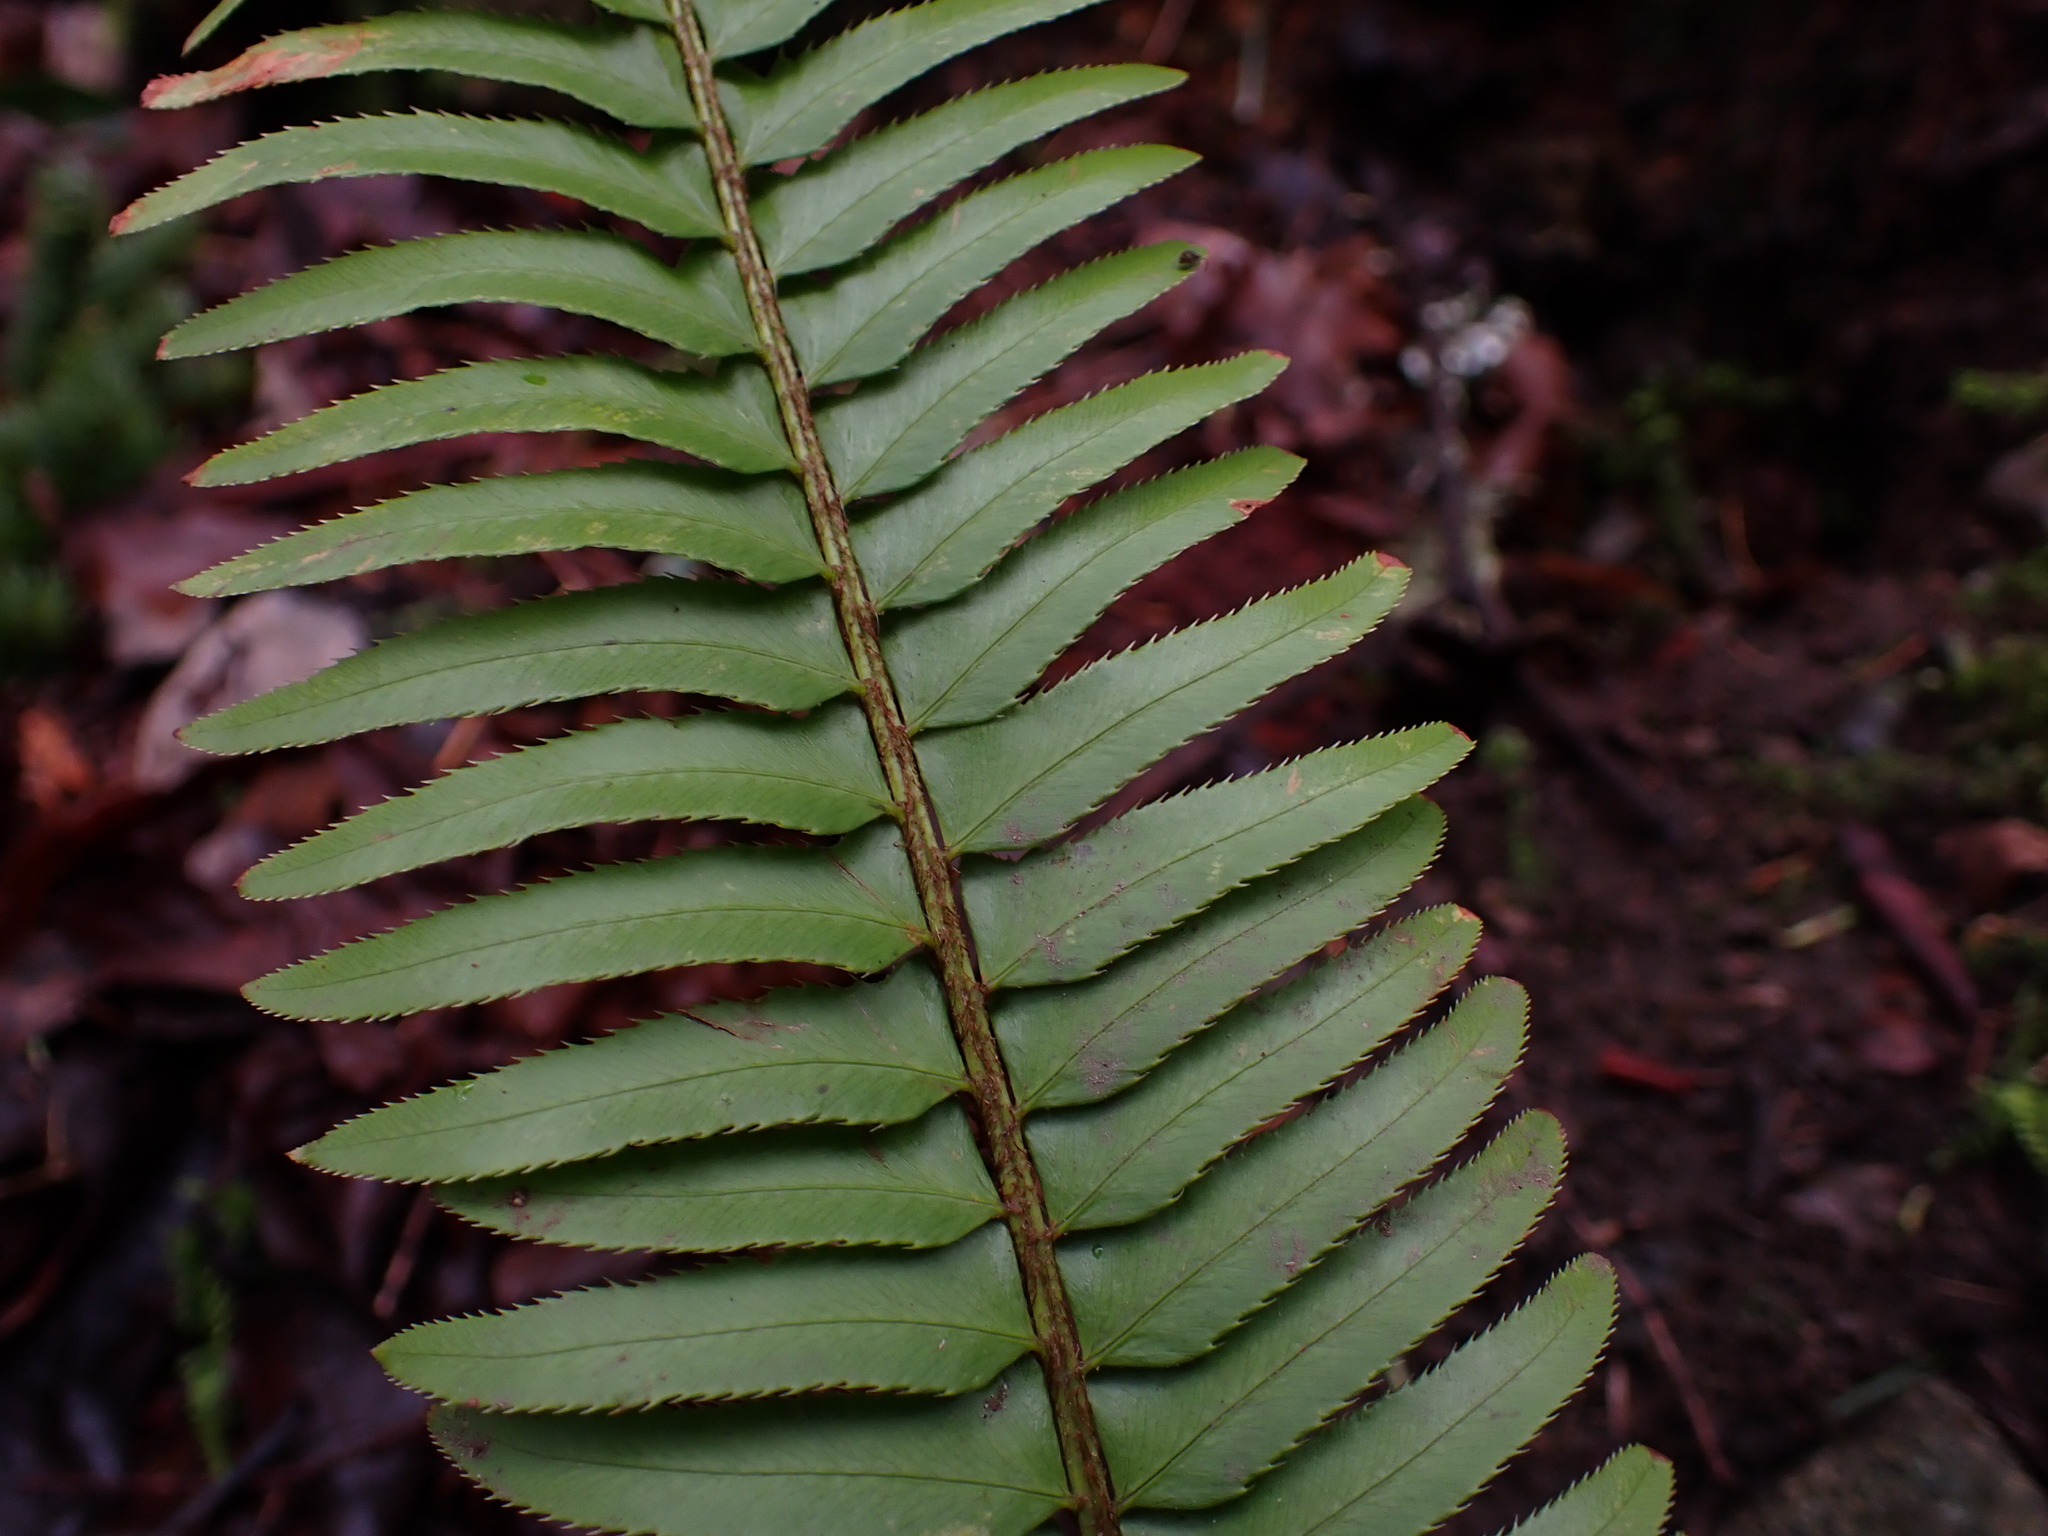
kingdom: Plantae
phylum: Tracheophyta
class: Polypodiopsida
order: Polypodiales
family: Dryopteridaceae
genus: Polystichum
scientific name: Polystichum munitum
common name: Western sword-fern
